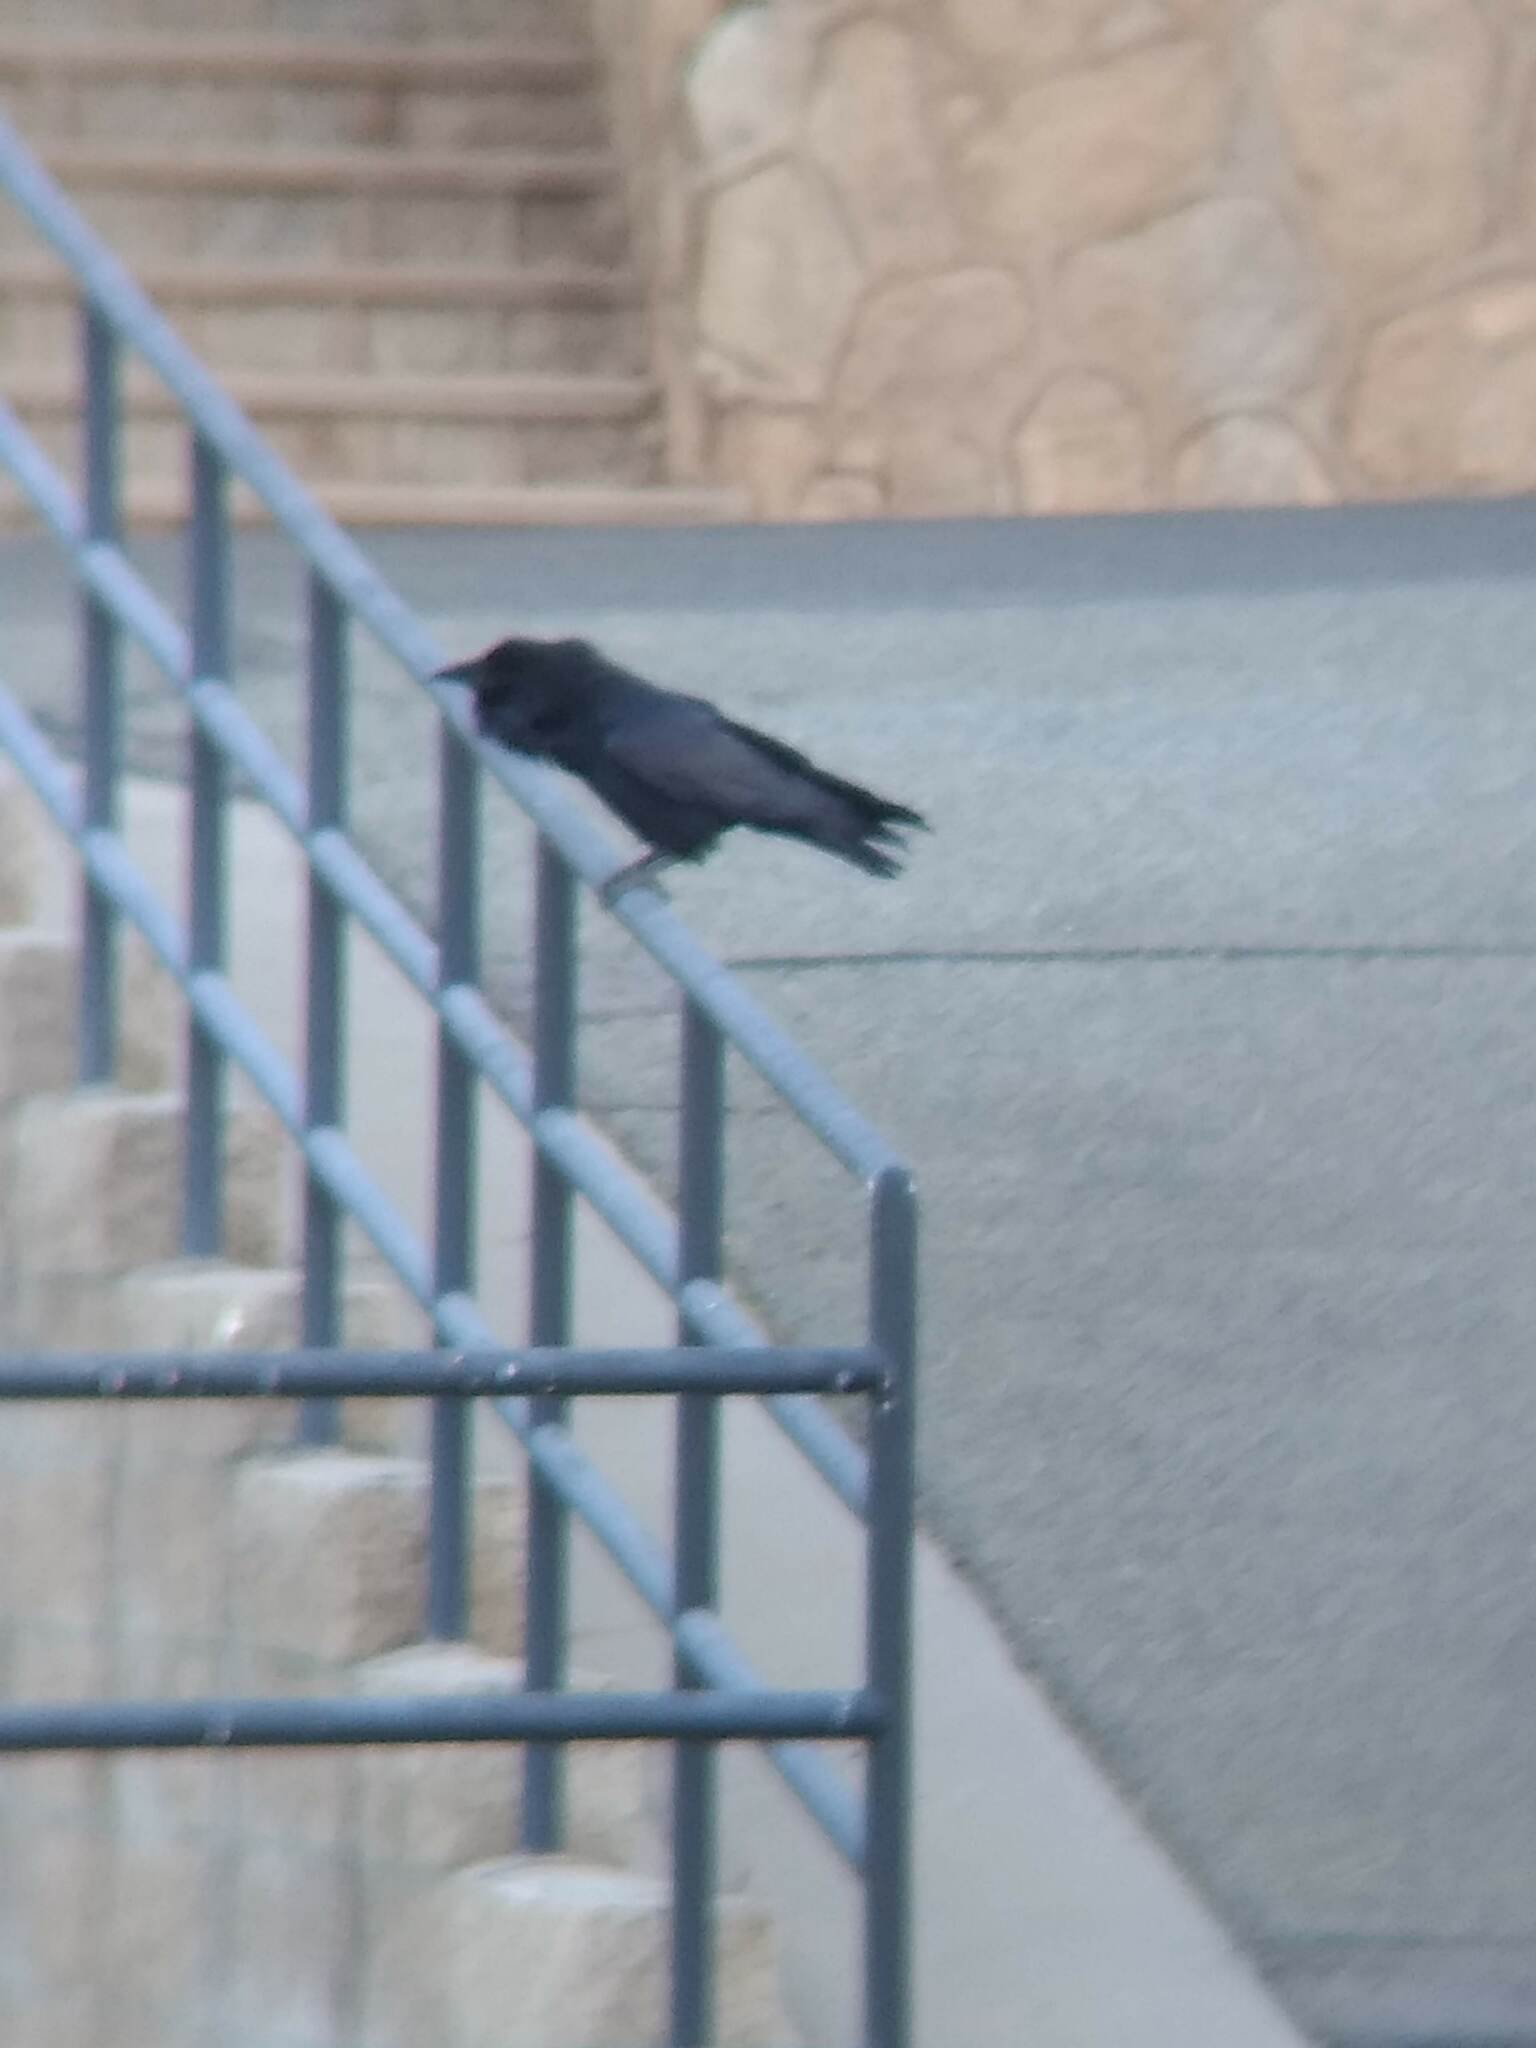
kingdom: Animalia
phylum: Chordata
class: Aves
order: Passeriformes
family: Corvidae
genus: Corvus
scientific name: Corvus corax
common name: Common raven
